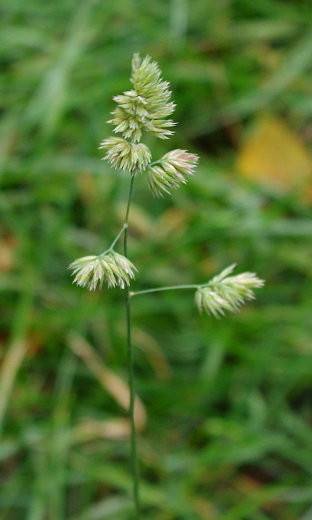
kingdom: Plantae
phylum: Tracheophyta
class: Liliopsida
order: Poales
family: Poaceae
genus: Dactylis
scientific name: Dactylis glomerata
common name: Orchardgrass
